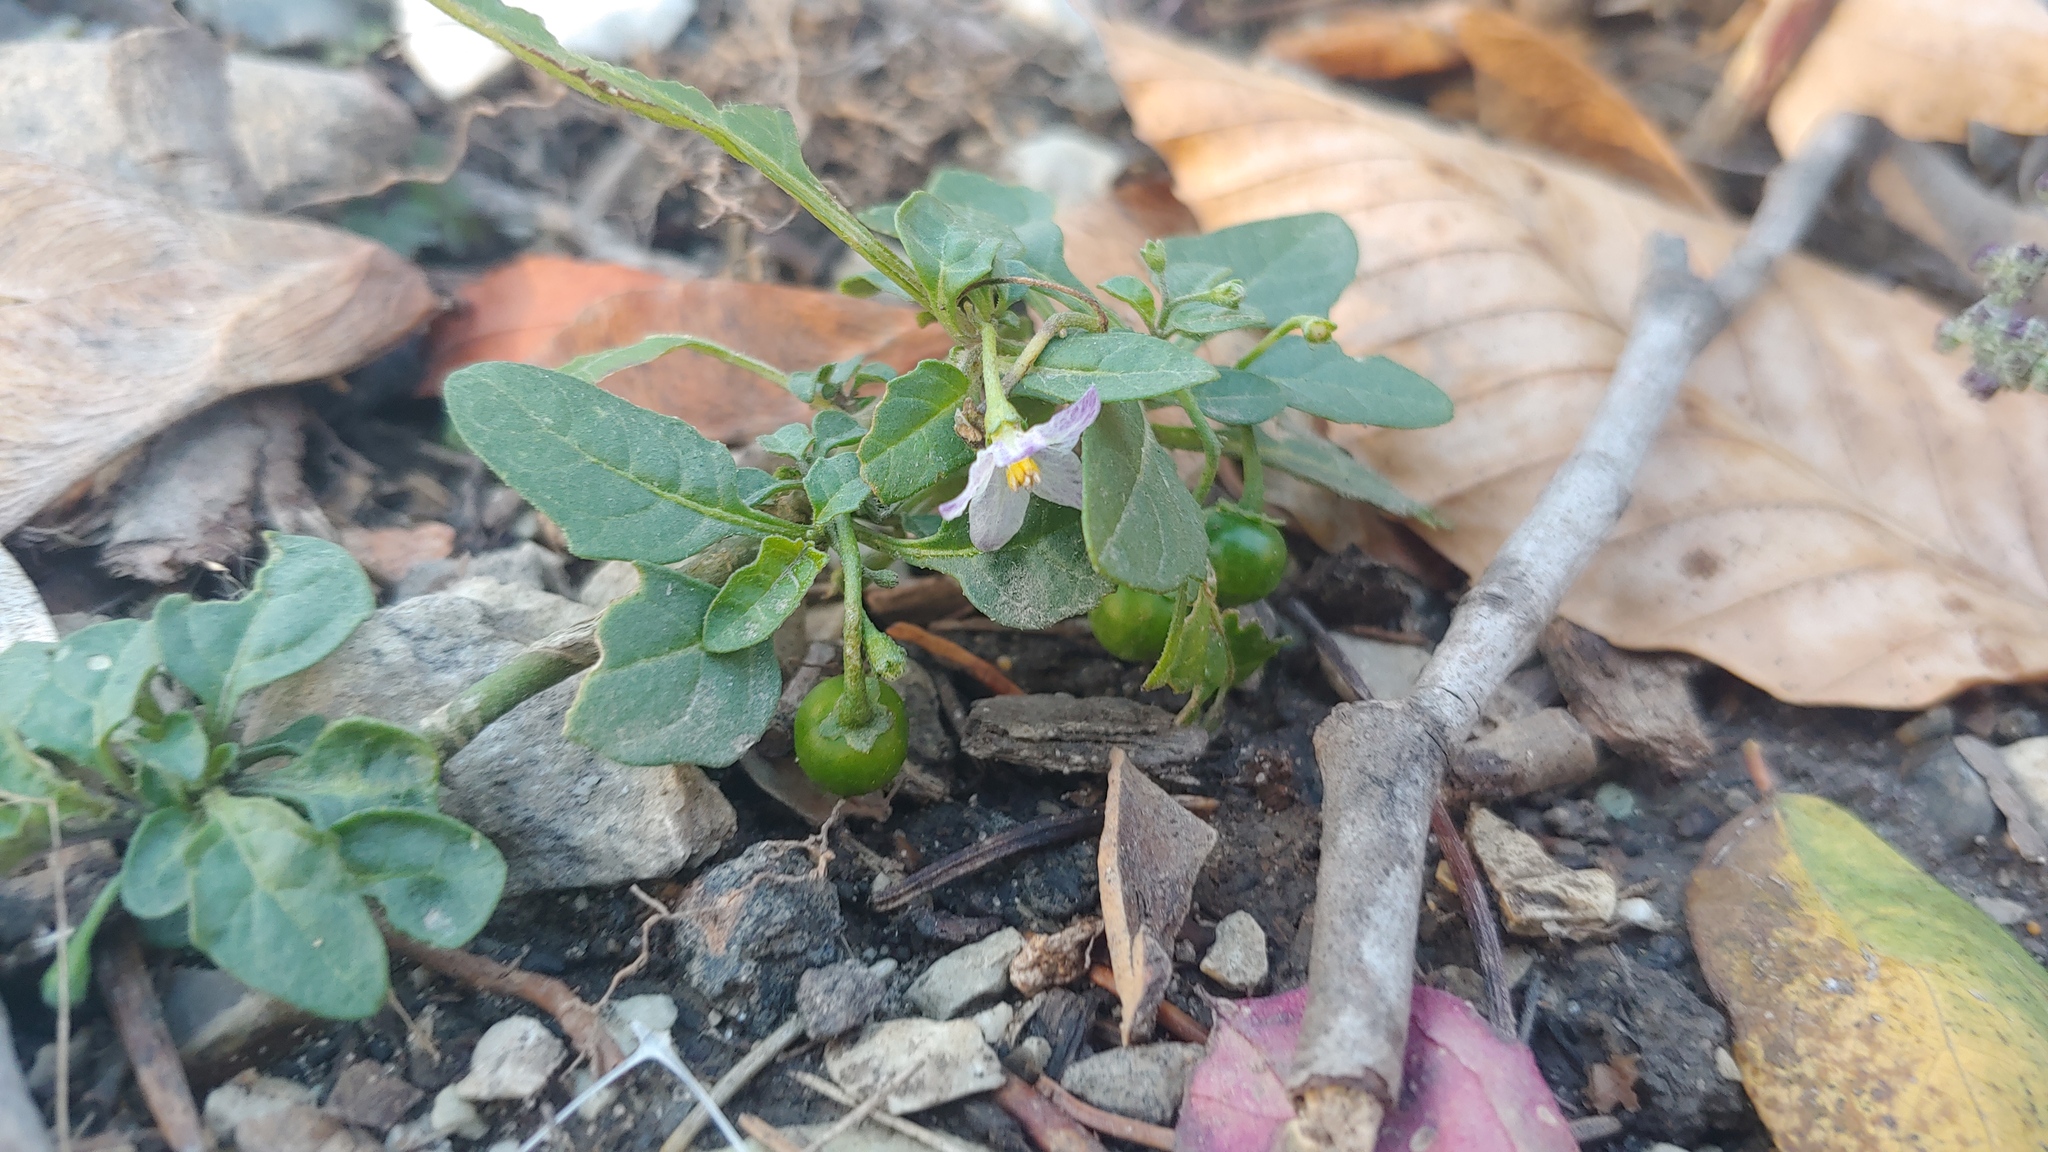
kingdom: Plantae
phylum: Tracheophyta
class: Magnoliopsida
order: Solanales
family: Solanaceae
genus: Solanum
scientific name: Solanum emulans
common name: Eastern black nightshade
